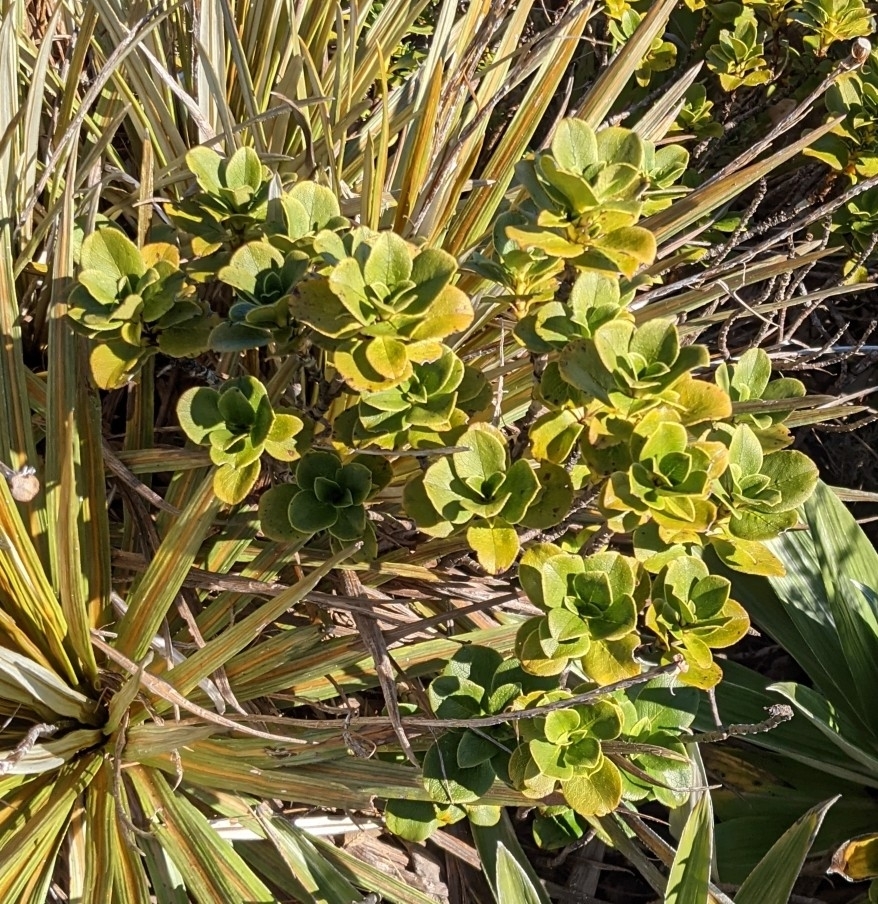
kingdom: Plantae
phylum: Tracheophyta
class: Magnoliopsida
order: Gentianales
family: Rubiaceae
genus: Coprosma
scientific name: Coprosma serrulata
